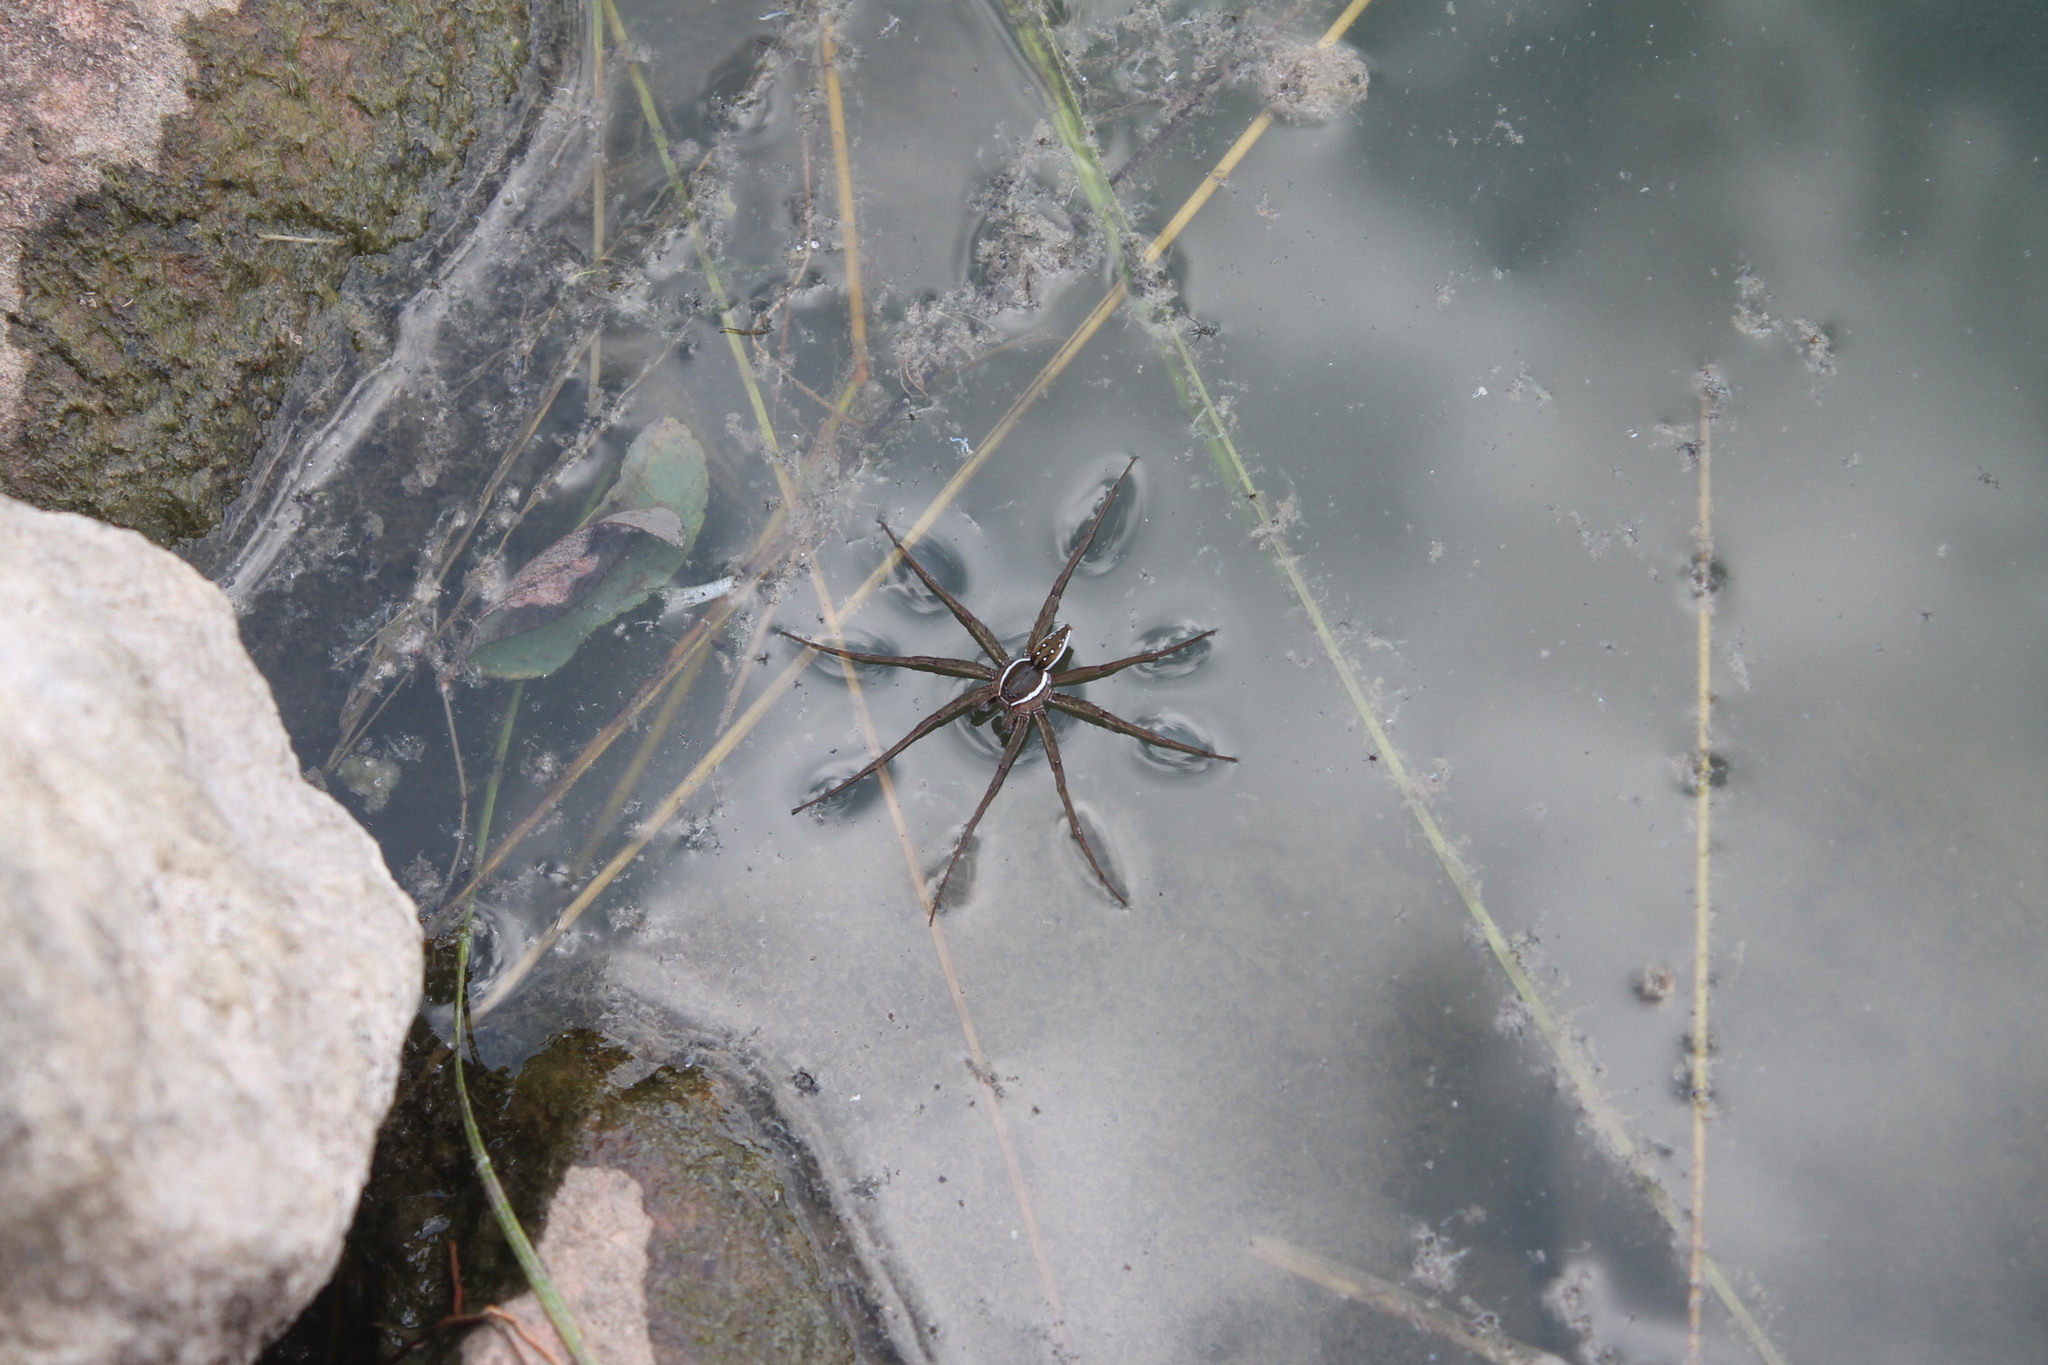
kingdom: Animalia
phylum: Arthropoda
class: Arachnida
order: Araneae
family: Pisauridae
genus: Dolomedes
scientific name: Dolomedes triton
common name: Six-spotted fishing spider
